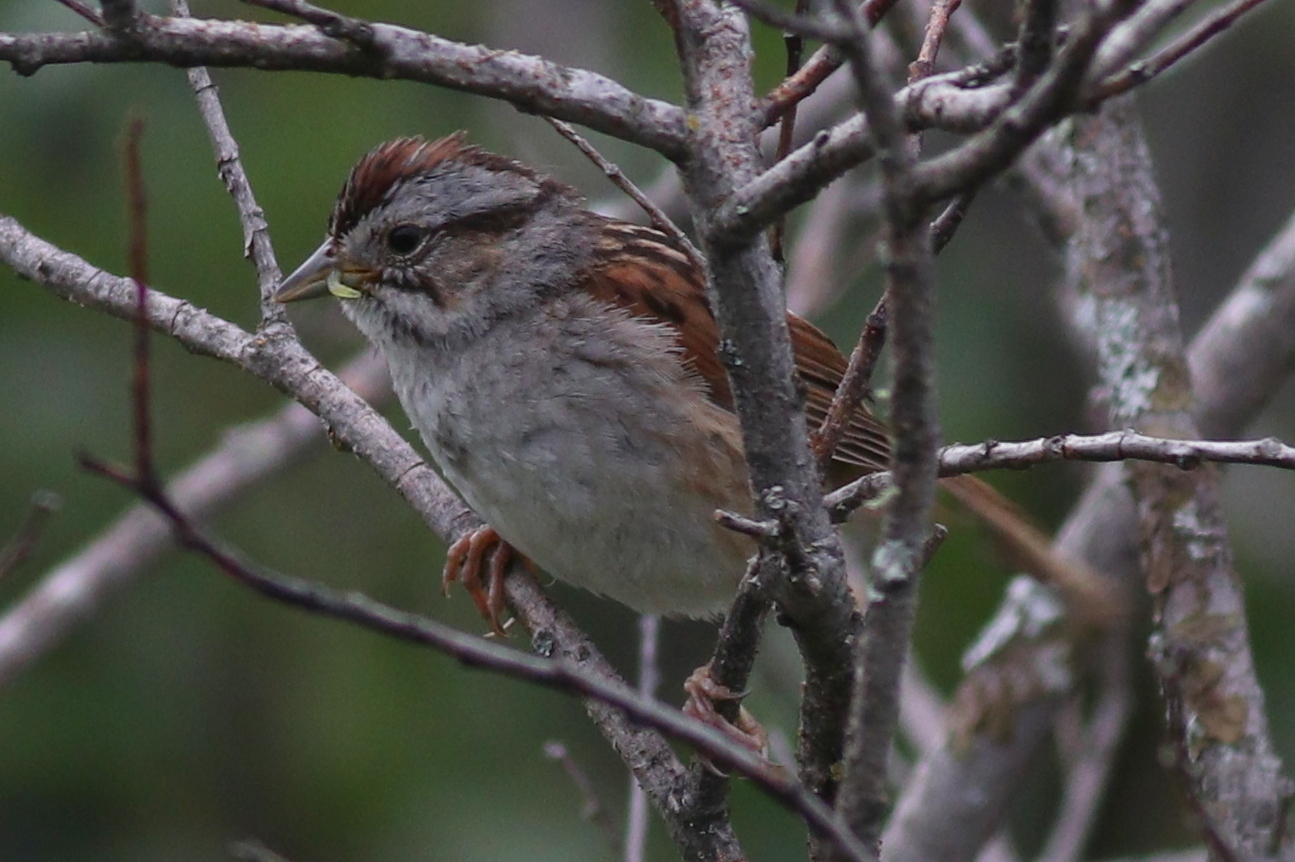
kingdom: Animalia
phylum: Chordata
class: Aves
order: Passeriformes
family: Passerellidae
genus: Melospiza
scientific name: Melospiza georgiana
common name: Swamp sparrow
